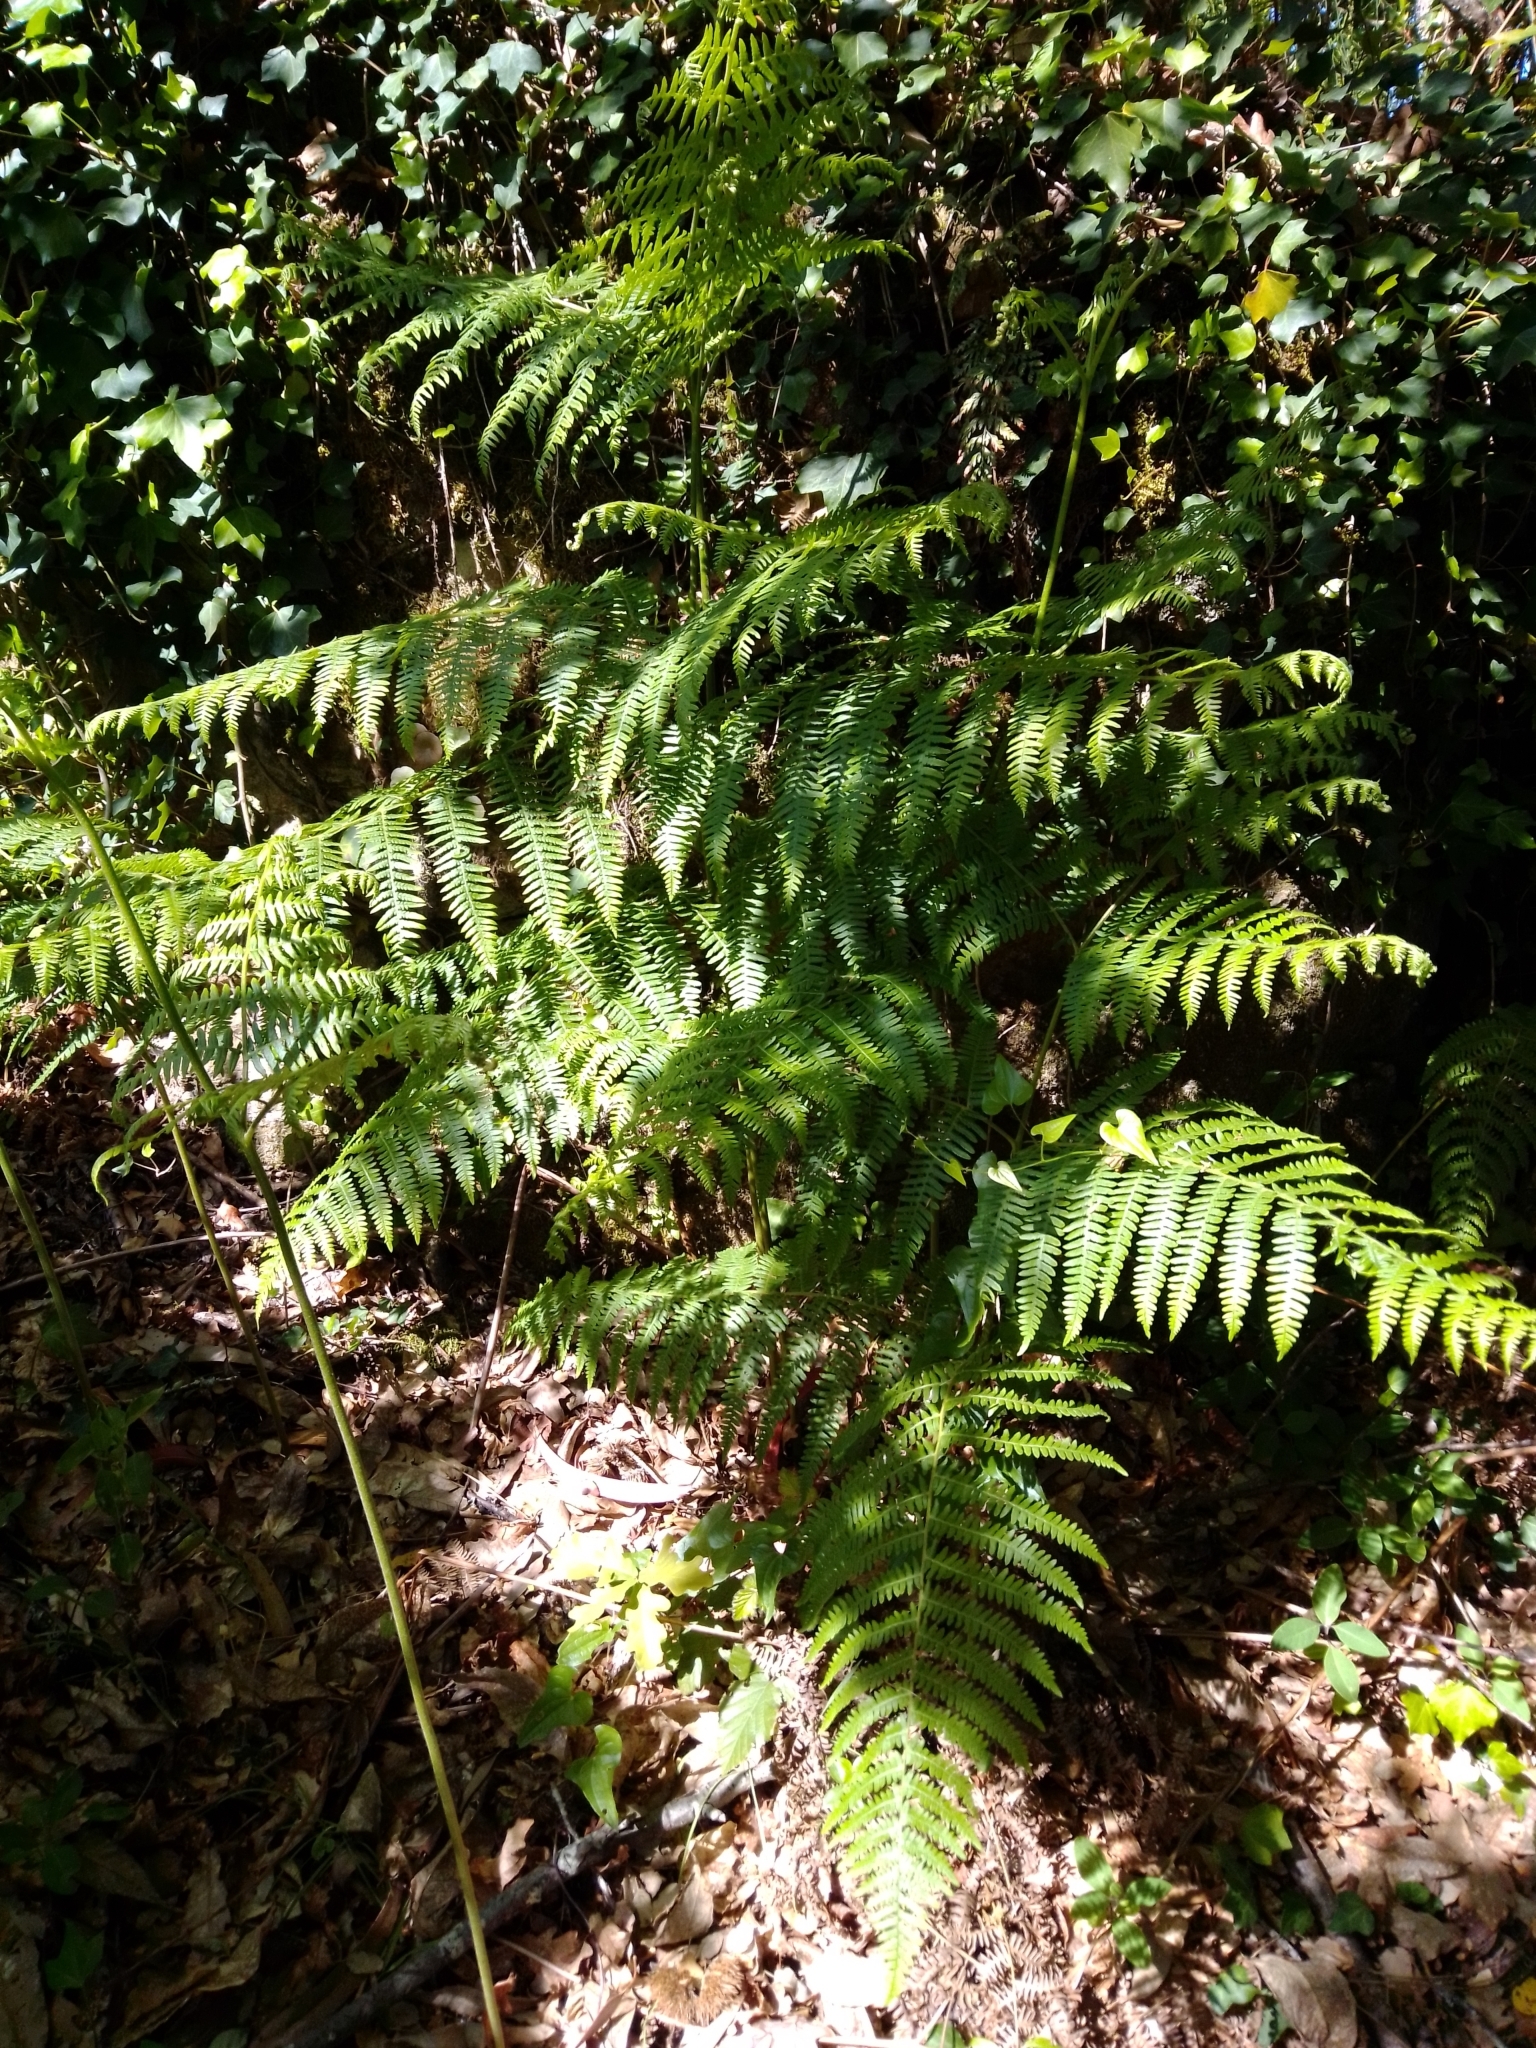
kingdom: Plantae
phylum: Tracheophyta
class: Polypodiopsida
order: Polypodiales
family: Dennstaedtiaceae
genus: Pteridium
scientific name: Pteridium aquilinum
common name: Bracken
